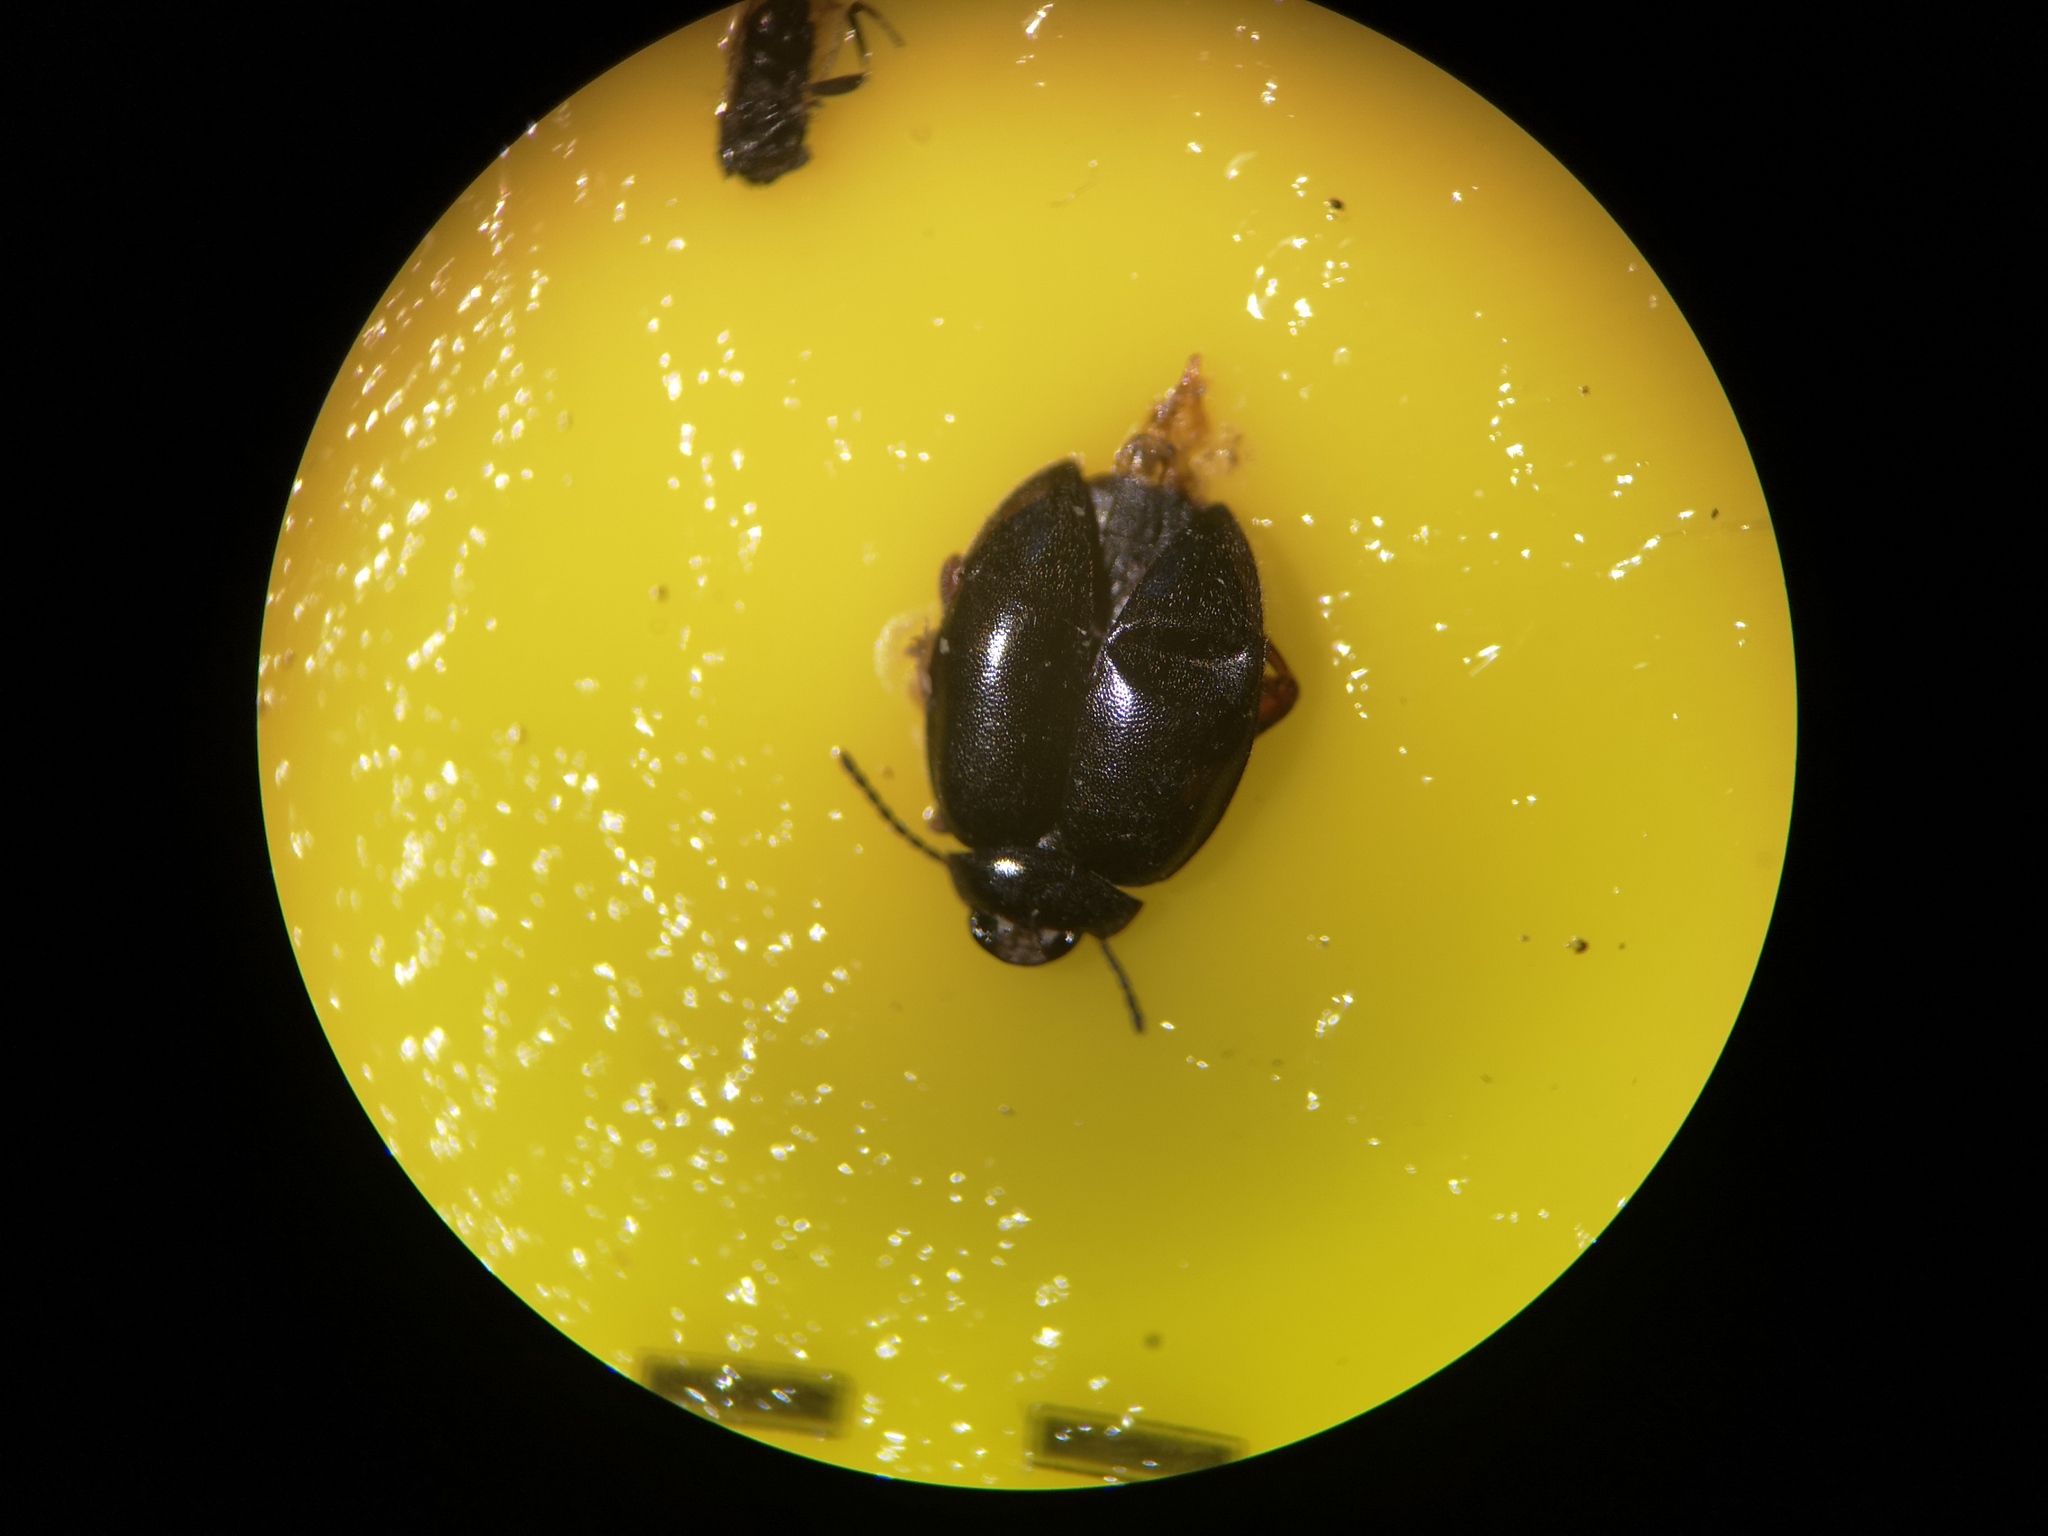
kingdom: Animalia
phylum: Arthropoda
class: Insecta
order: Coleoptera
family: Scirtidae
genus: Scirtes
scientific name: Scirtes hemisphaericus
